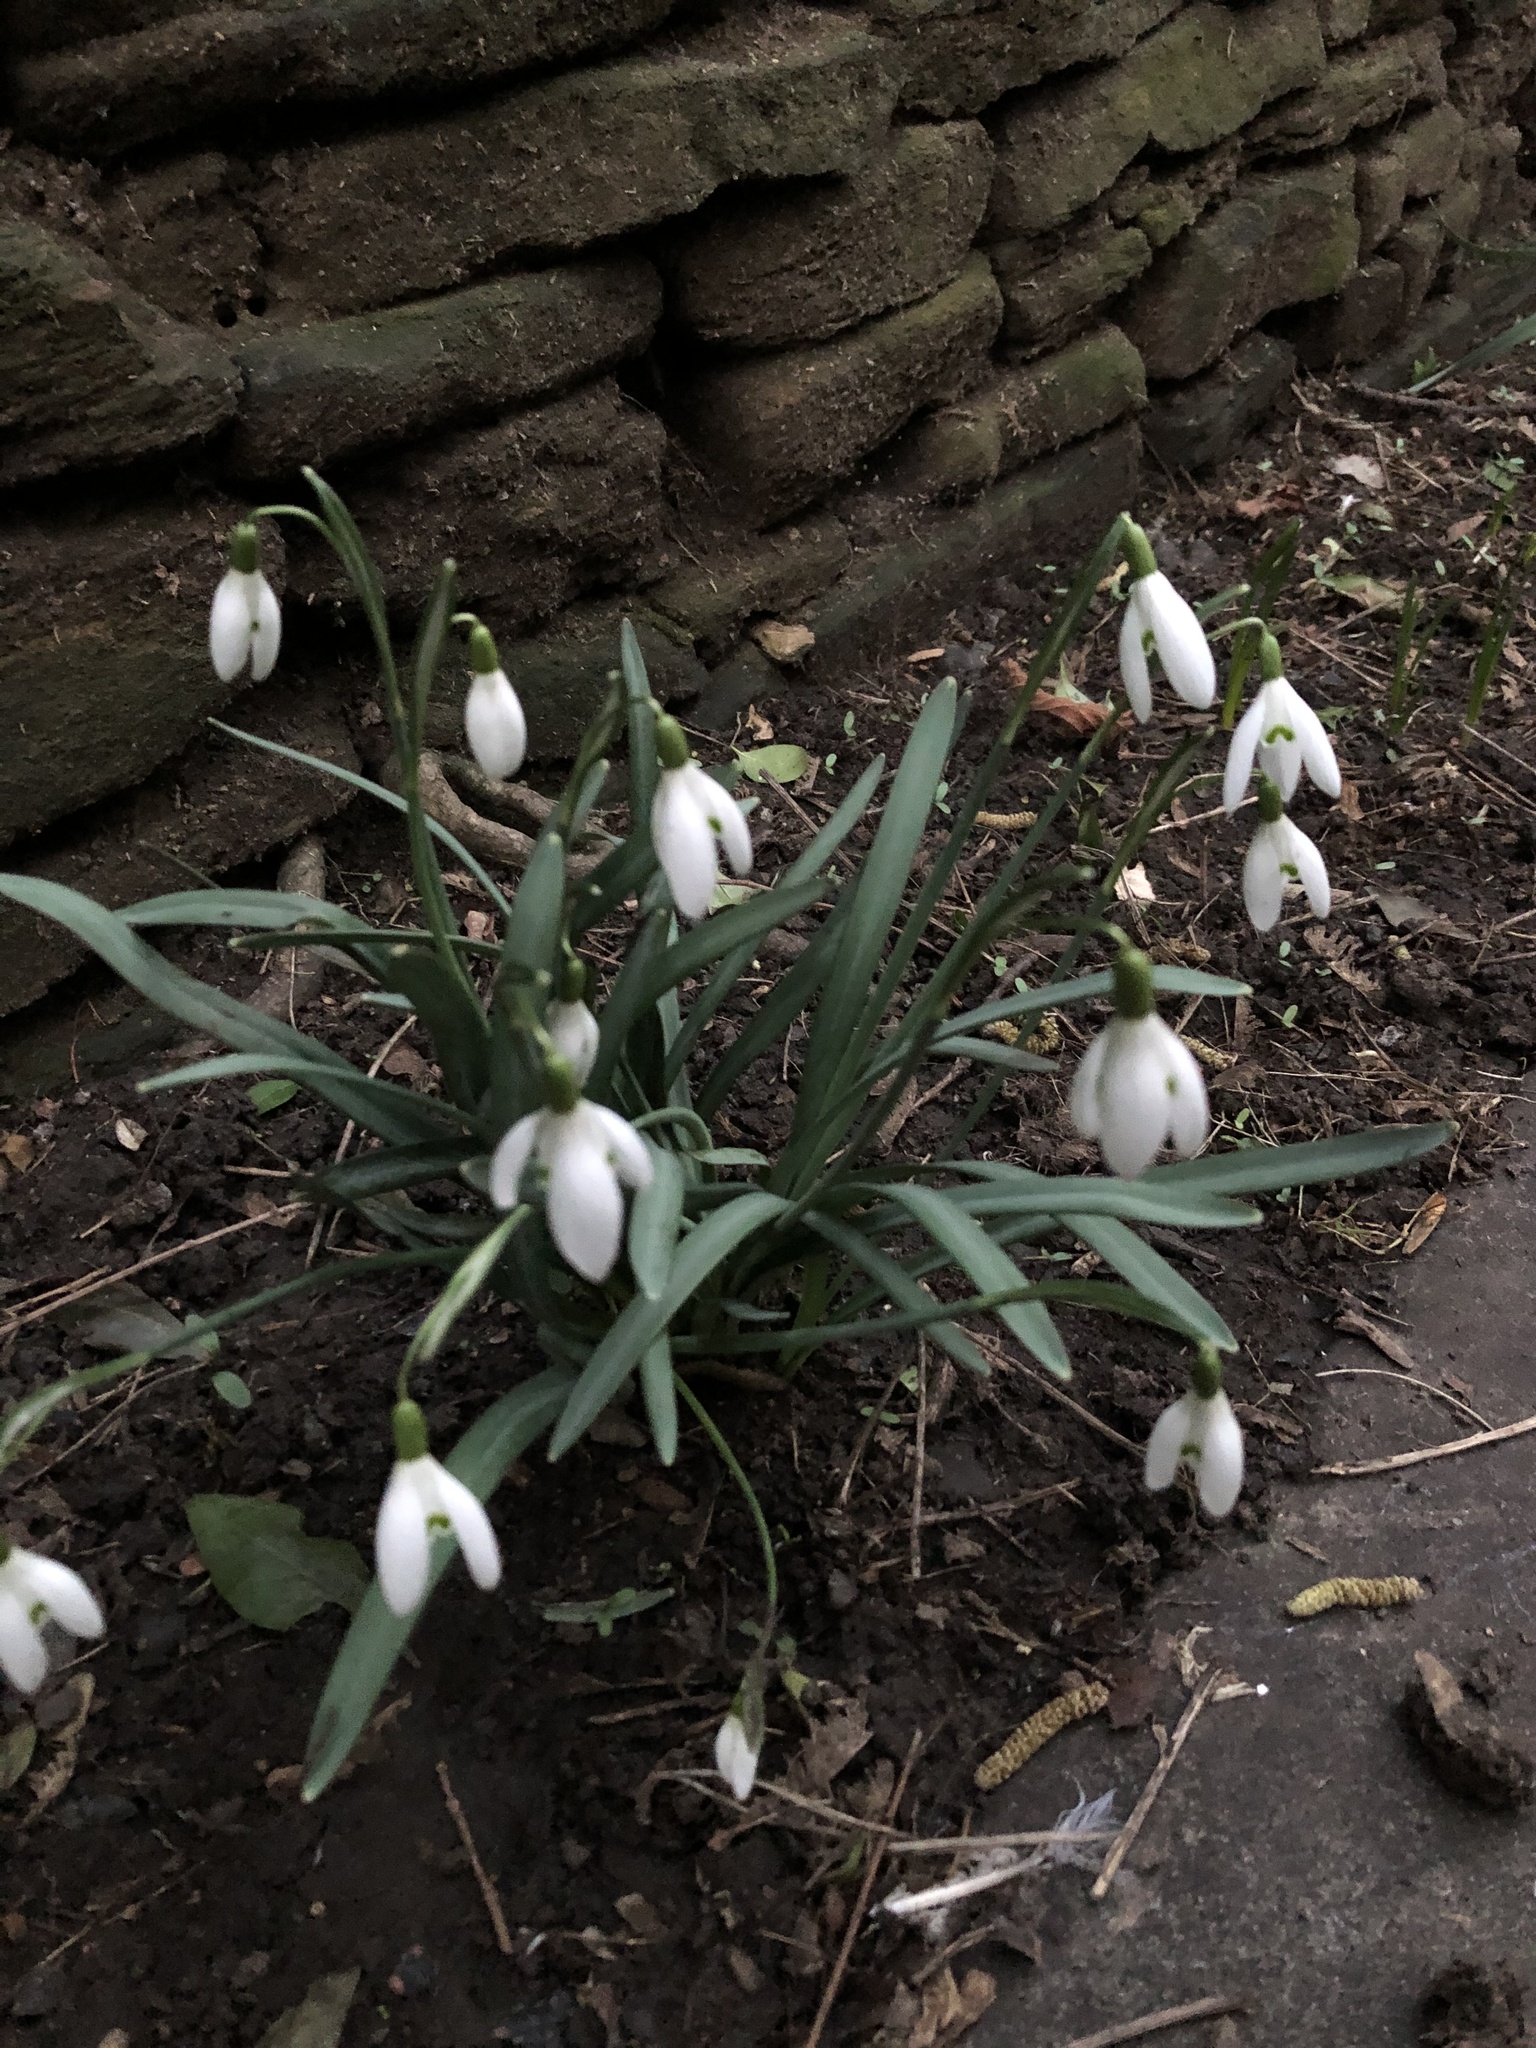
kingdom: Plantae
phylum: Tracheophyta
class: Liliopsida
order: Asparagales
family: Amaryllidaceae
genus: Galanthus
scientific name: Galanthus nivalis
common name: Snowdrop
